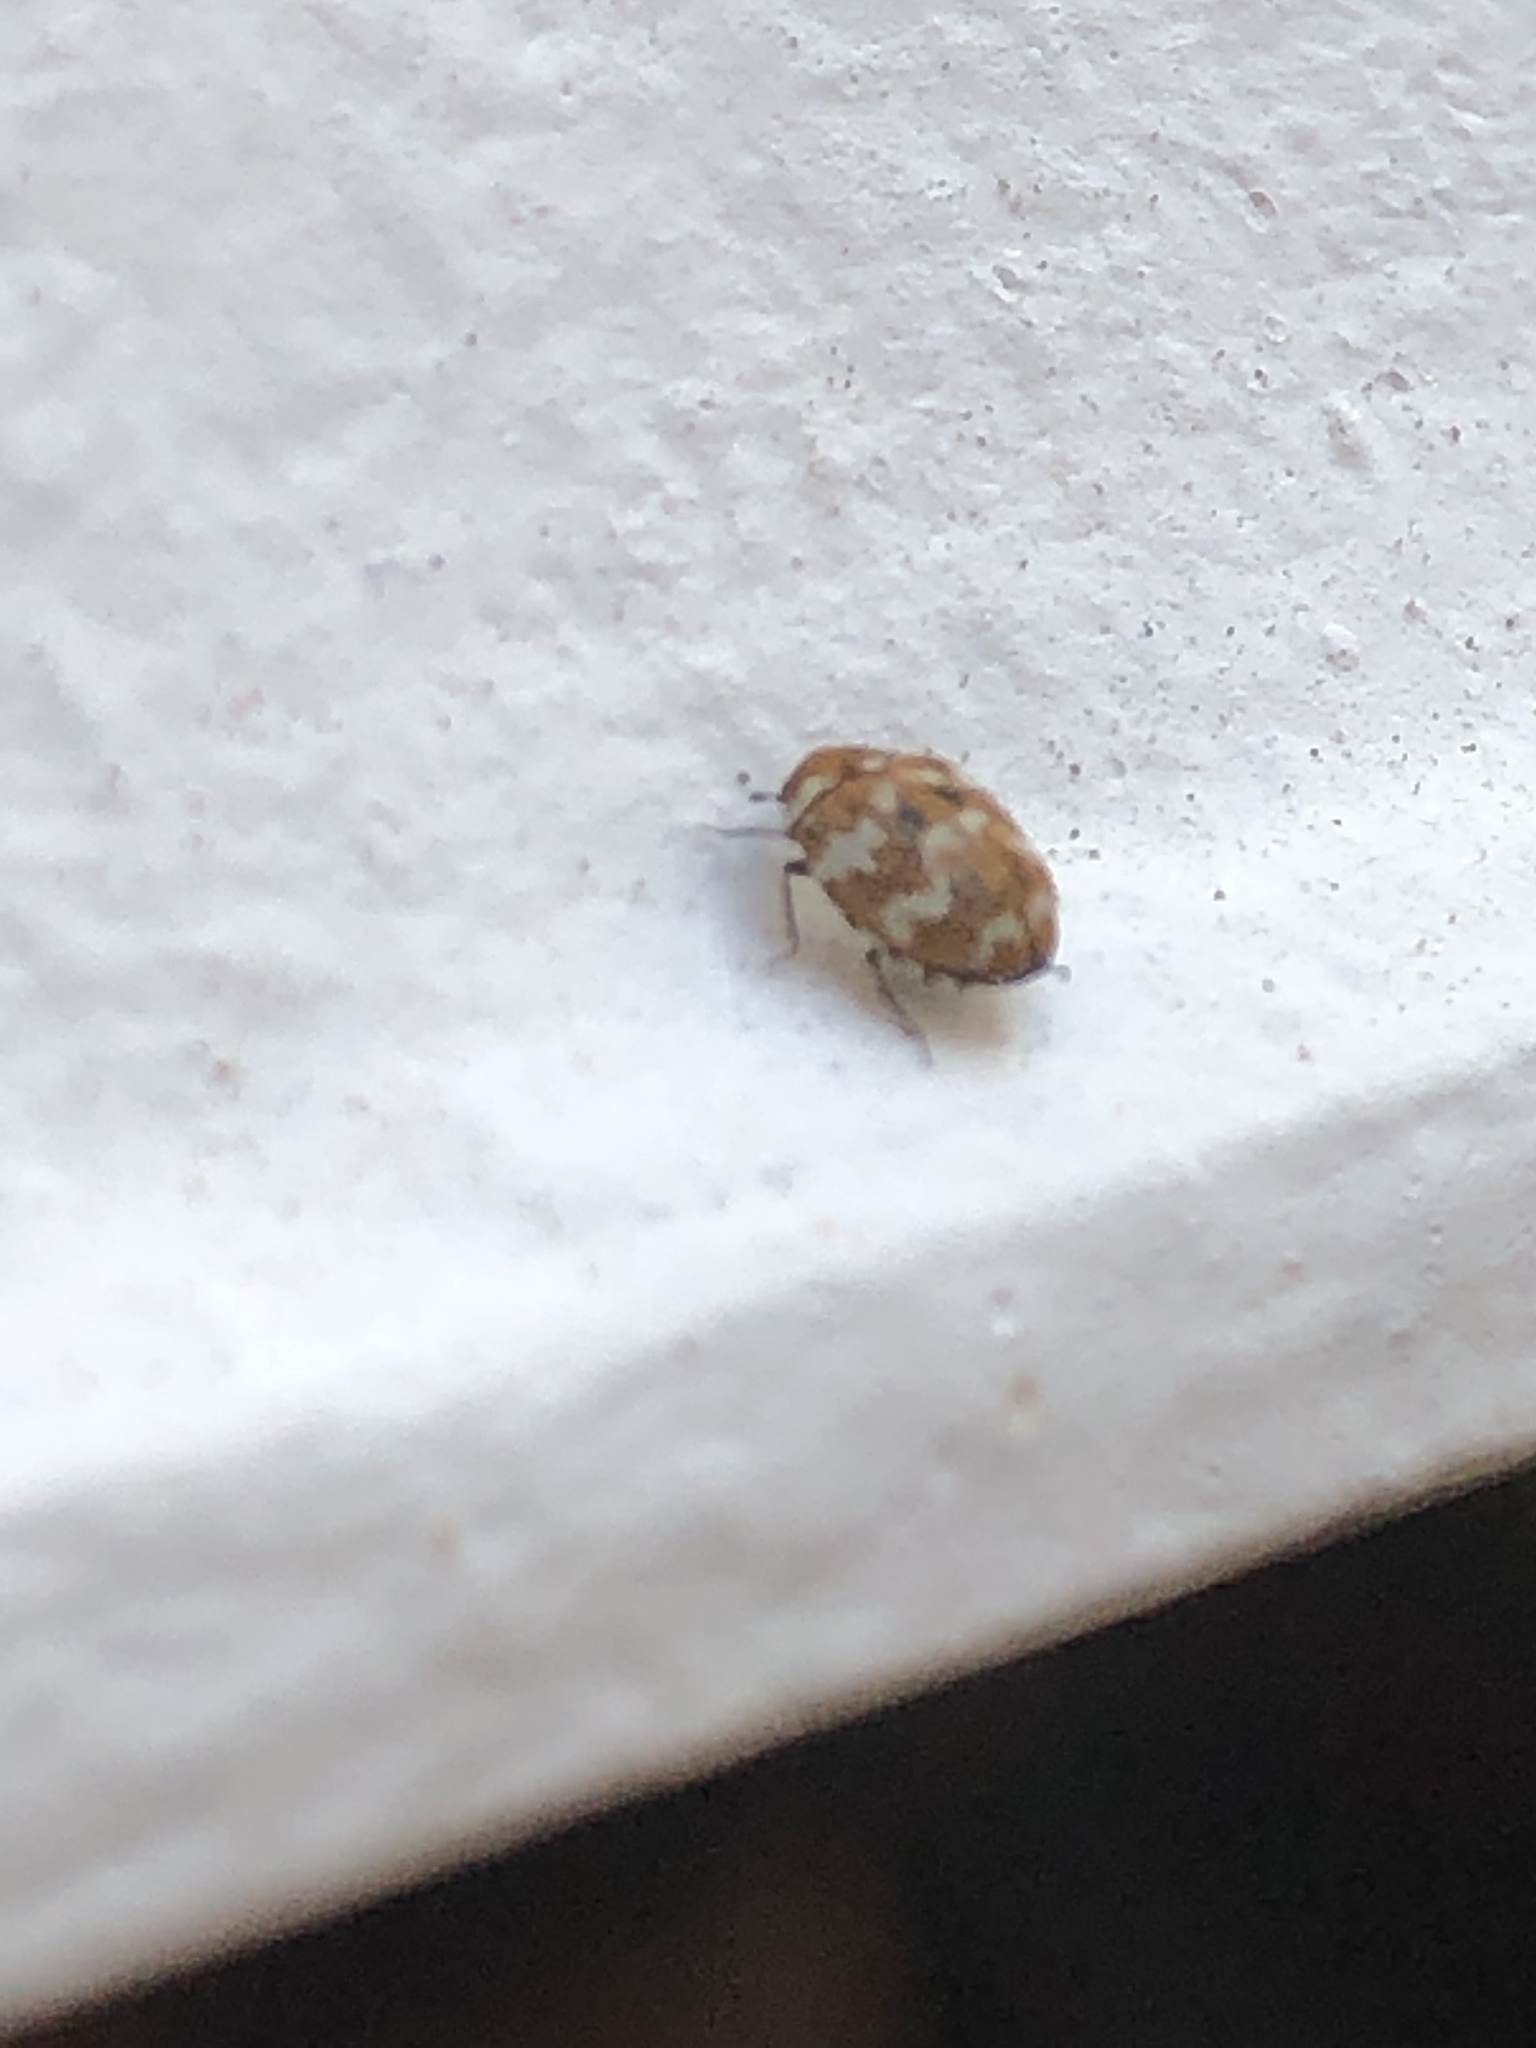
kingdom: Animalia
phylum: Arthropoda
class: Insecta
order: Coleoptera
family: Dermestidae
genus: Anthrenus
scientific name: Anthrenus verbasci
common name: Varied carpet beetle
